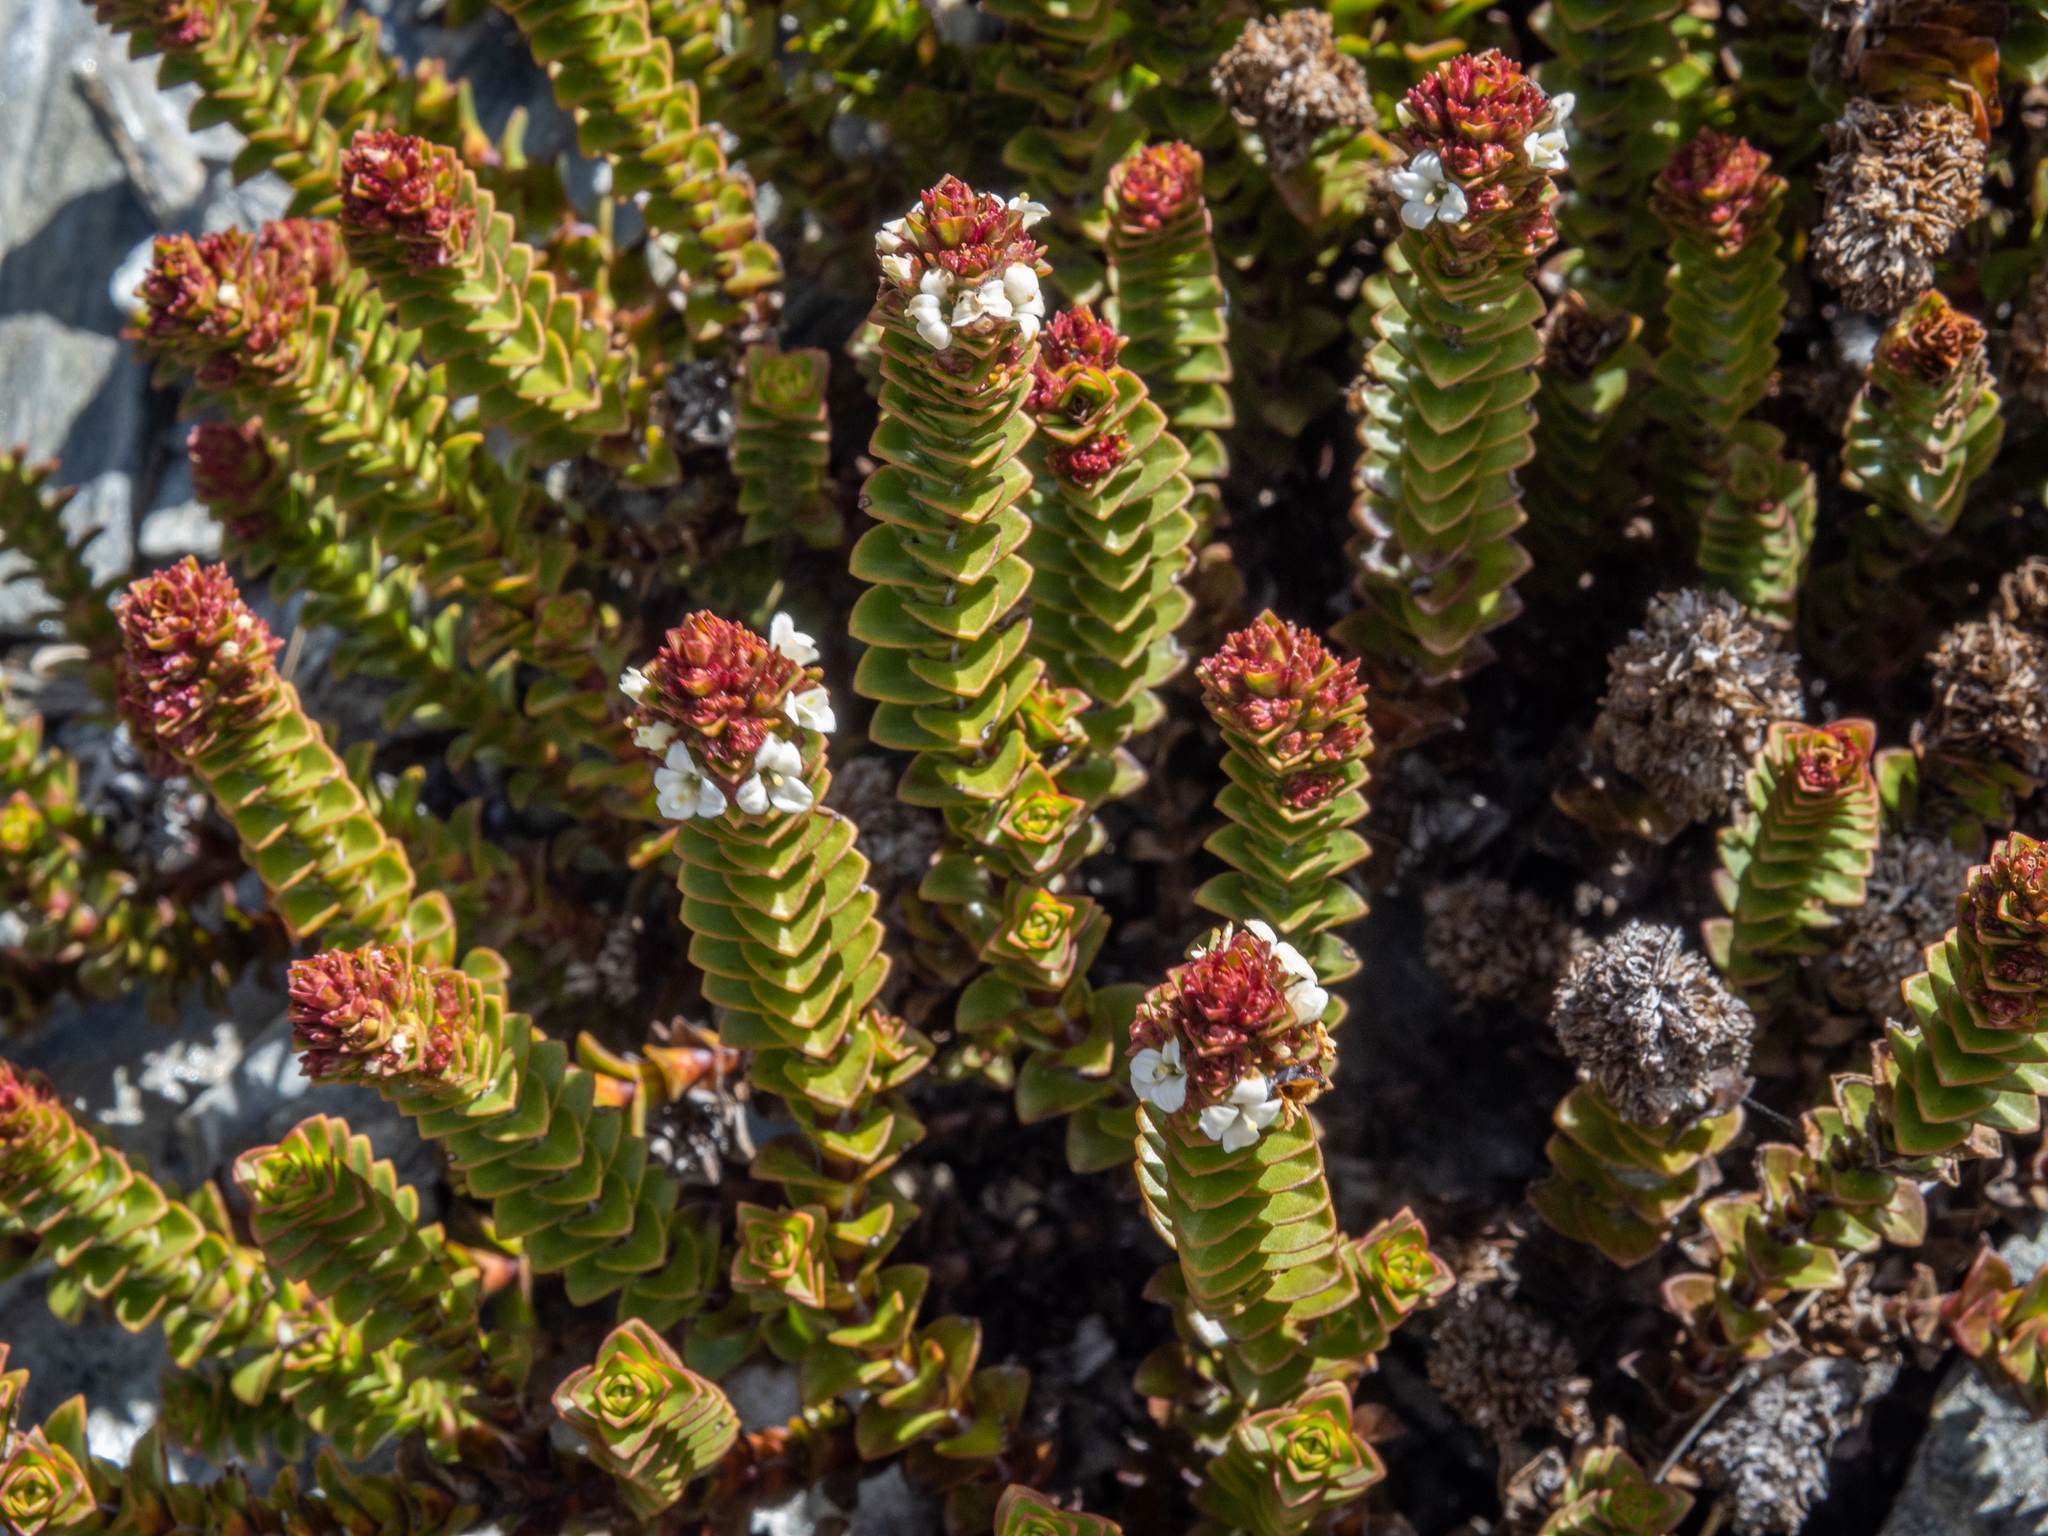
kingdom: Plantae
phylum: Tracheophyta
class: Magnoliopsida
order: Lamiales
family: Plantaginaceae
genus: Veronica
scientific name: Veronica epacridea
